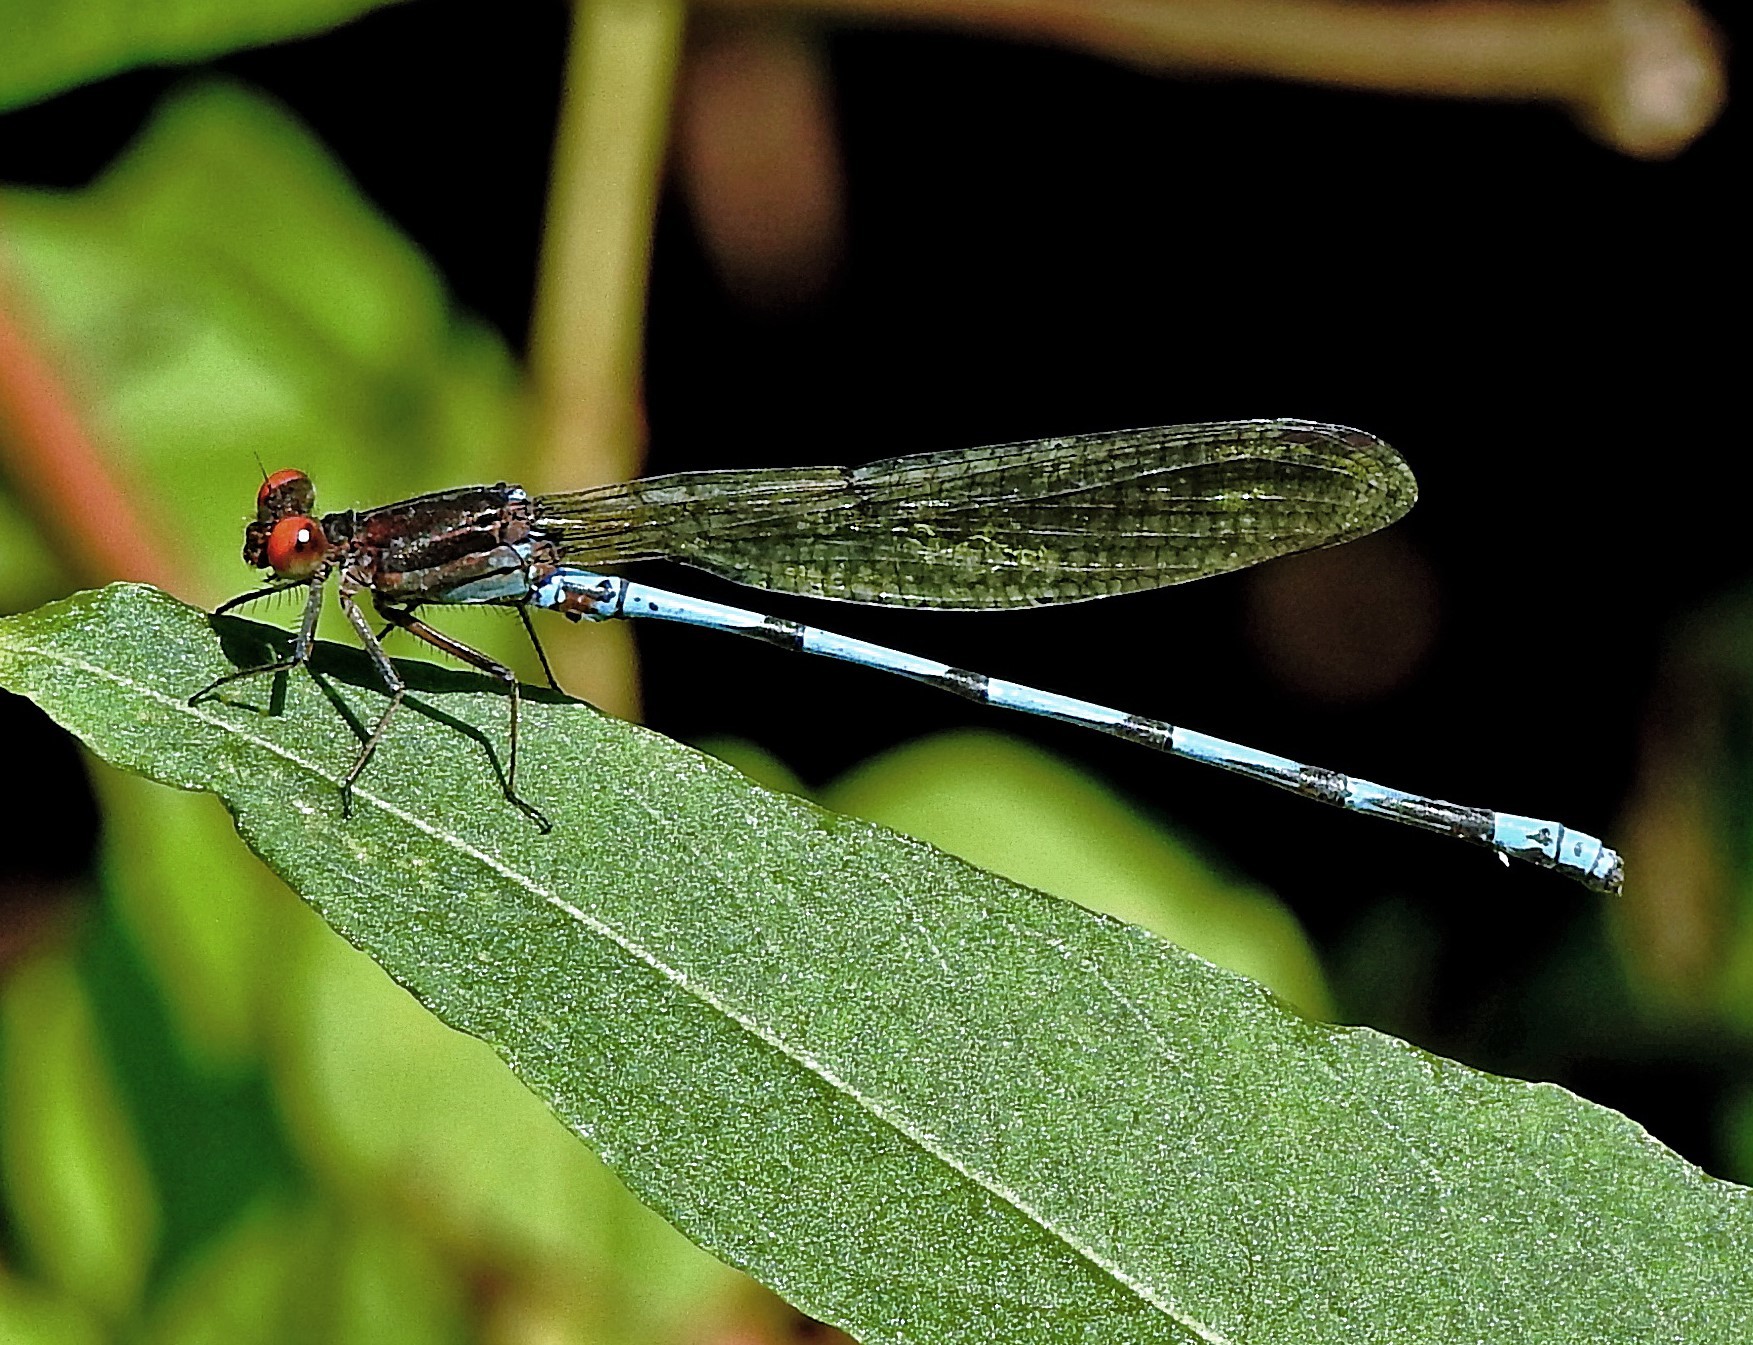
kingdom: Animalia
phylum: Arthropoda
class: Insecta
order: Odonata
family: Coenagrionidae
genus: Argia
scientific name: Argia joergenseni
